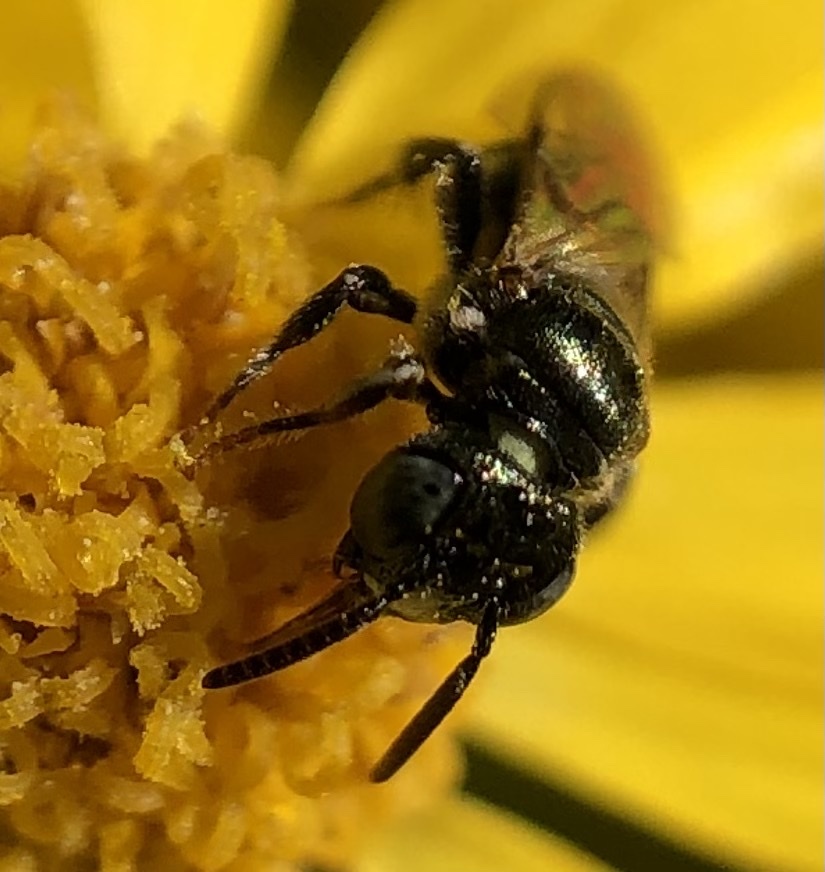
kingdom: Animalia
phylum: Arthropoda
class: Insecta
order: Hymenoptera
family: Apidae
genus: Ceratina
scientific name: Ceratina strenua
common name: Nimble carpenter bee
